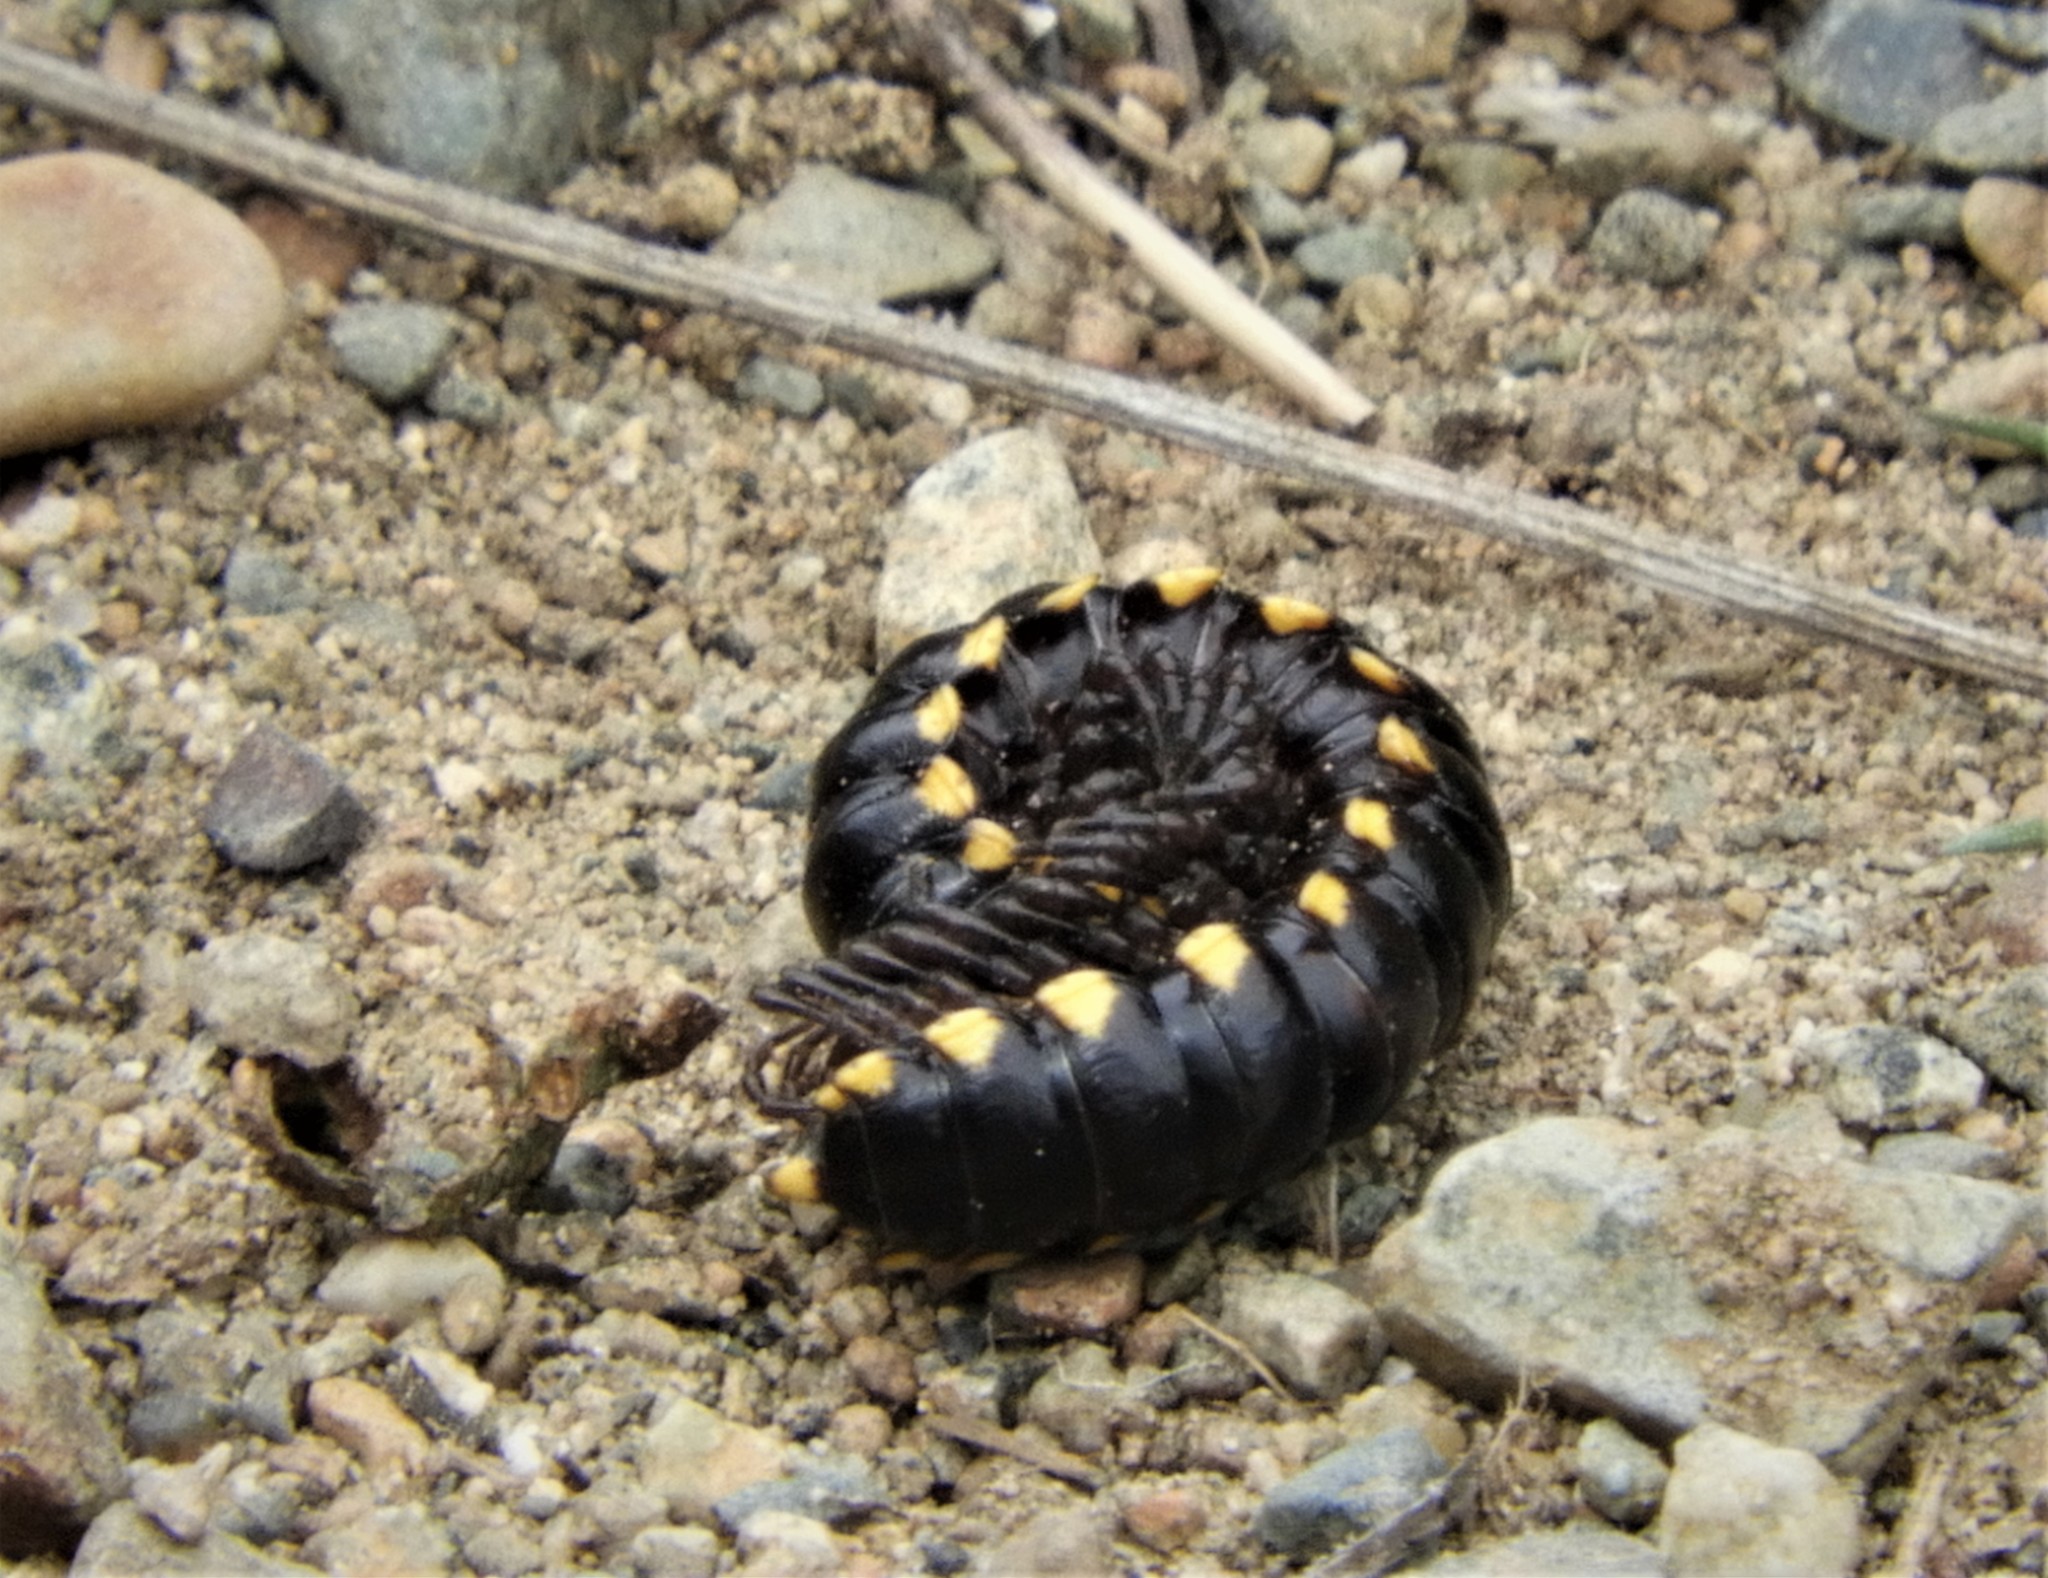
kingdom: Animalia
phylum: Arthropoda
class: Diplopoda
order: Polydesmida
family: Xystodesmidae
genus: Harpaphe
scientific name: Harpaphe haydeniana
